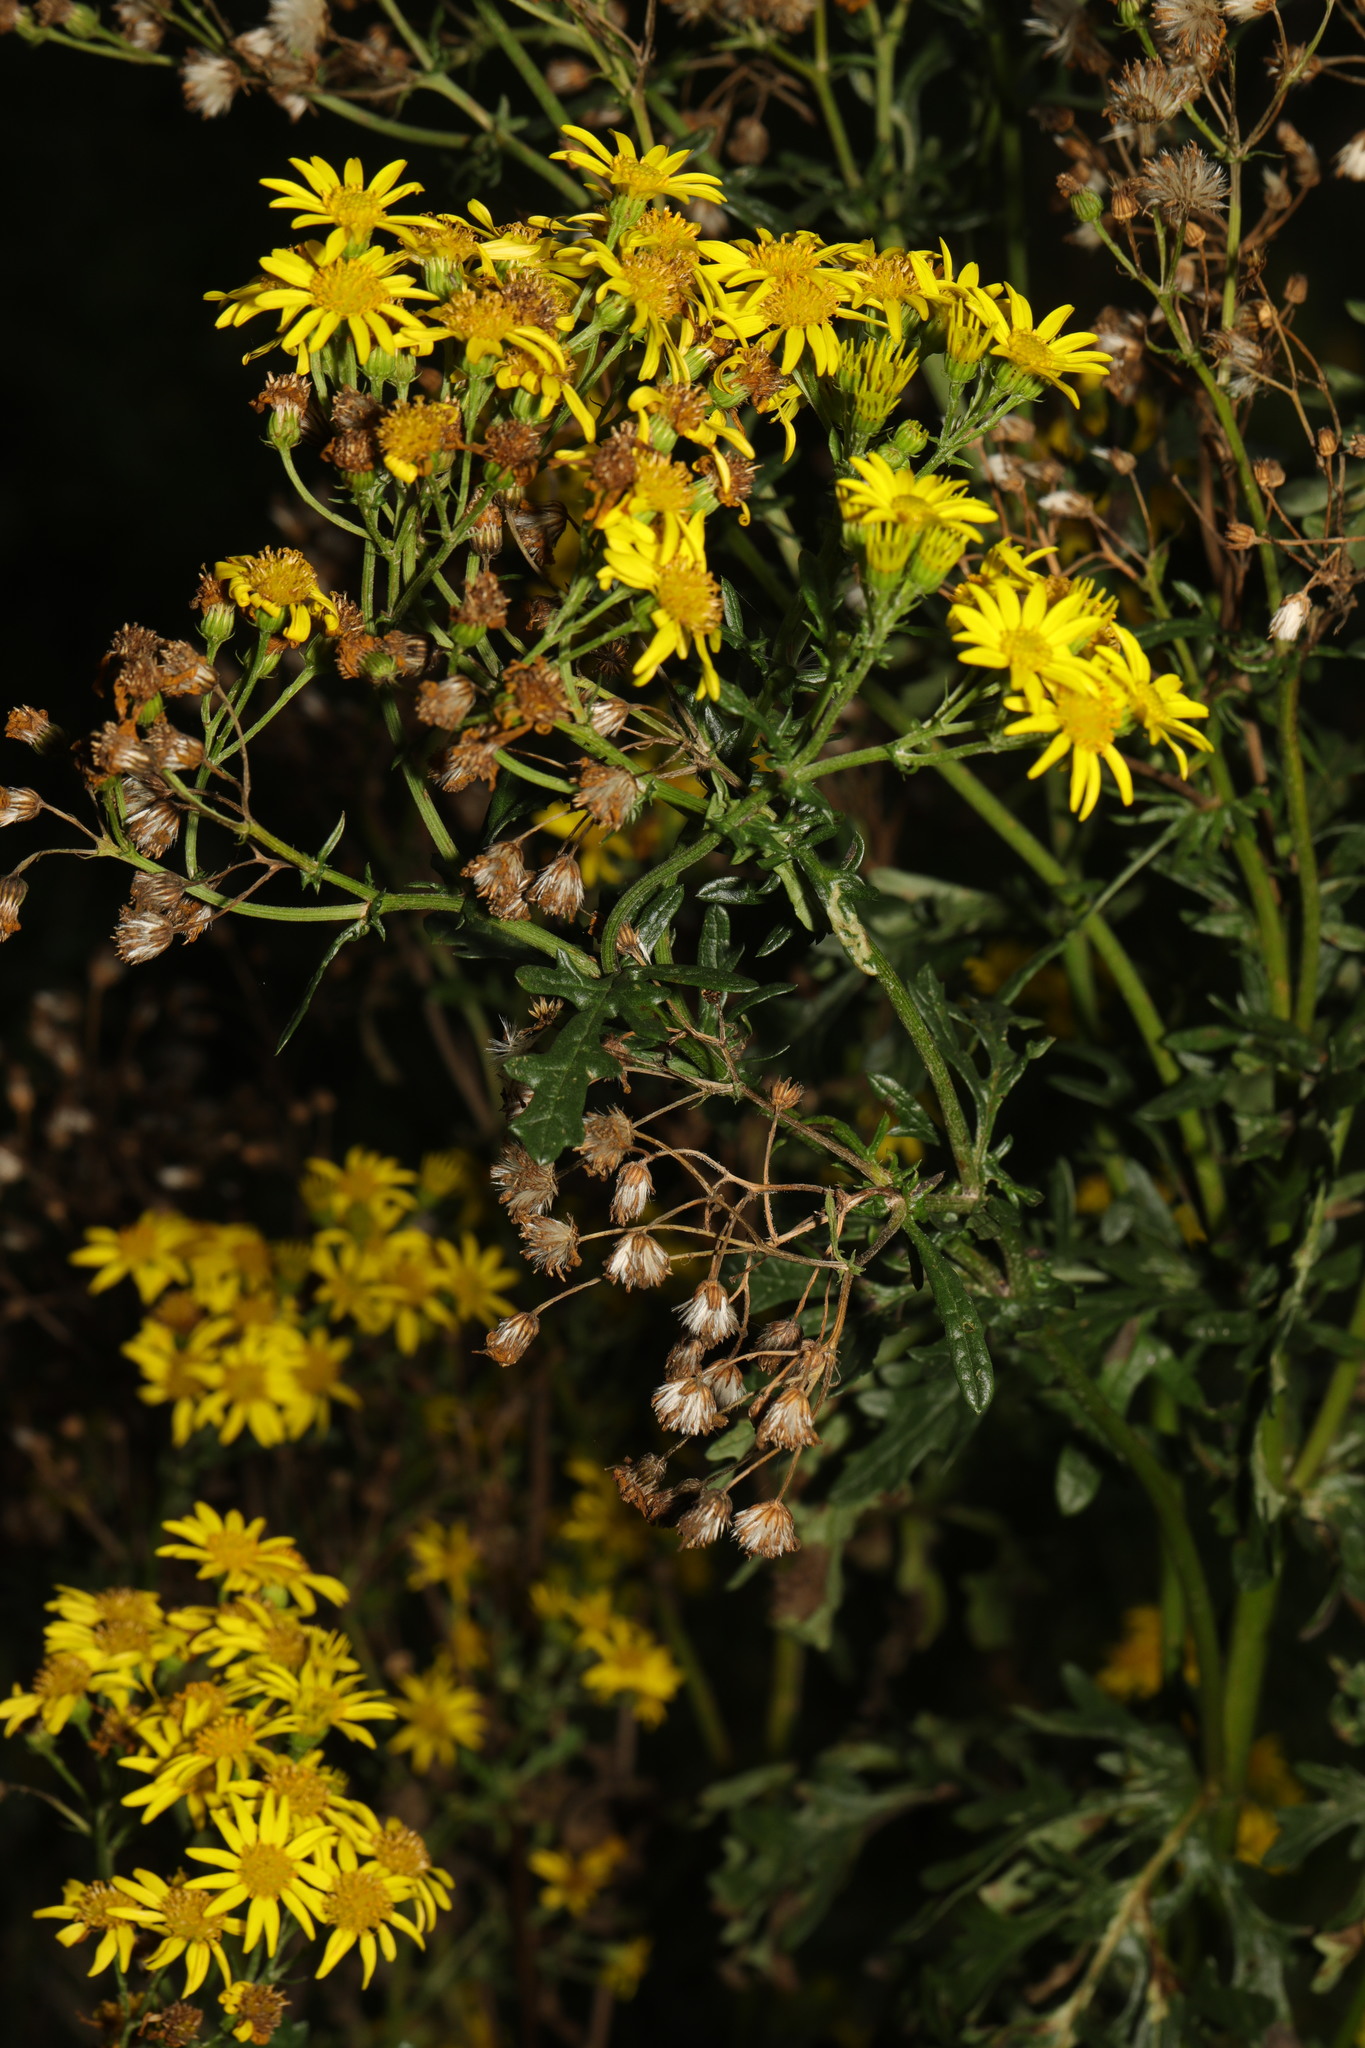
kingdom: Plantae
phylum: Tracheophyta
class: Magnoliopsida
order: Asterales
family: Asteraceae
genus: Jacobaea
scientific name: Jacobaea vulgaris
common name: Stinking willie
